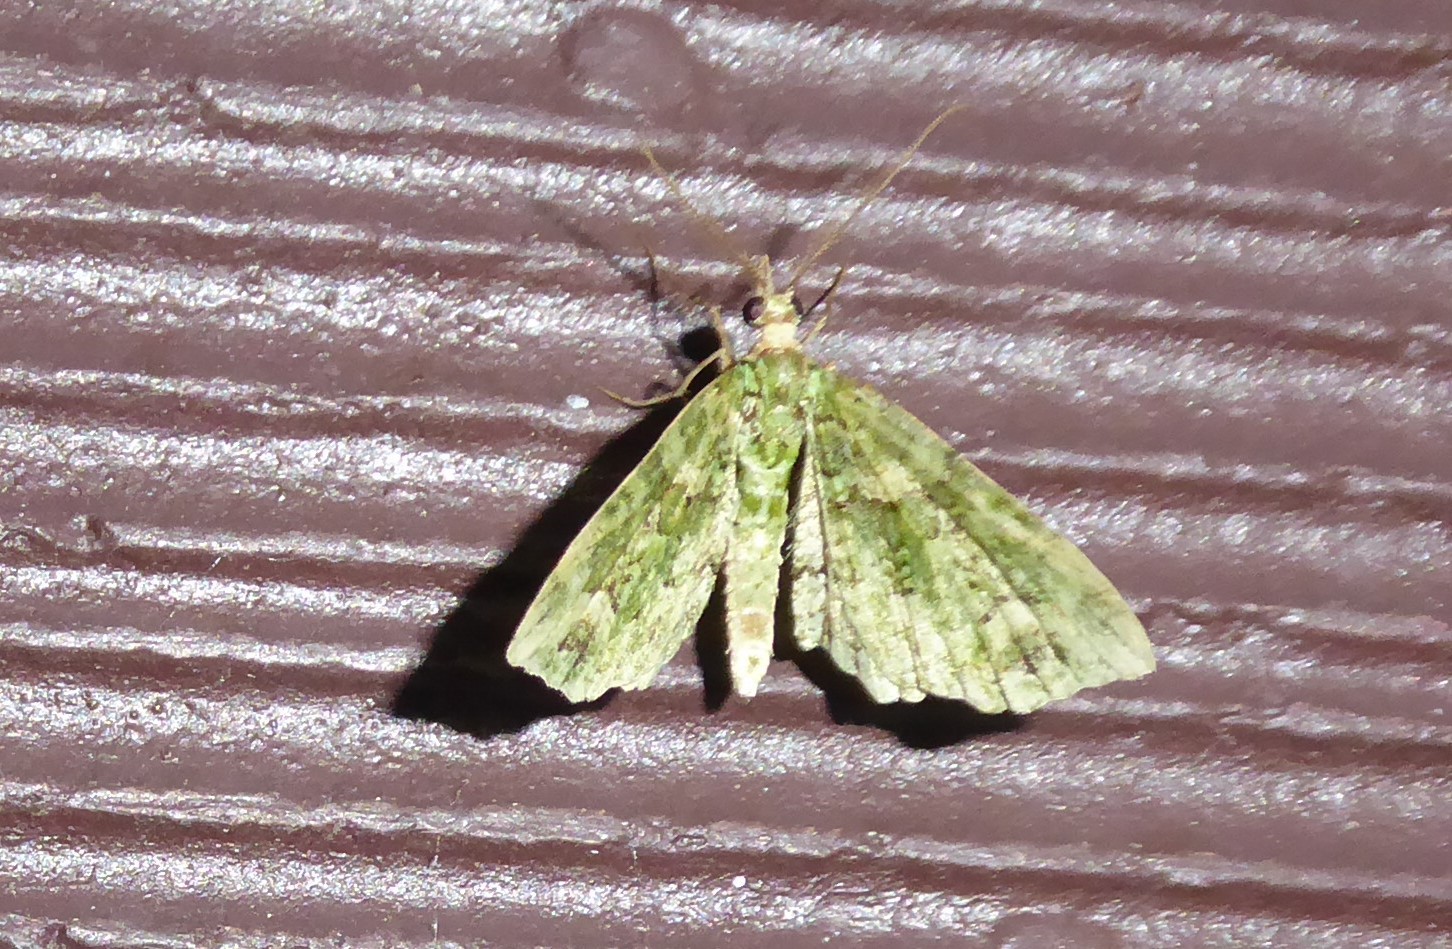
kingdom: Animalia
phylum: Arthropoda
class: Insecta
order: Lepidoptera
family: Geometridae
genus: Pasiphila
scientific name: Pasiphila muscosata
